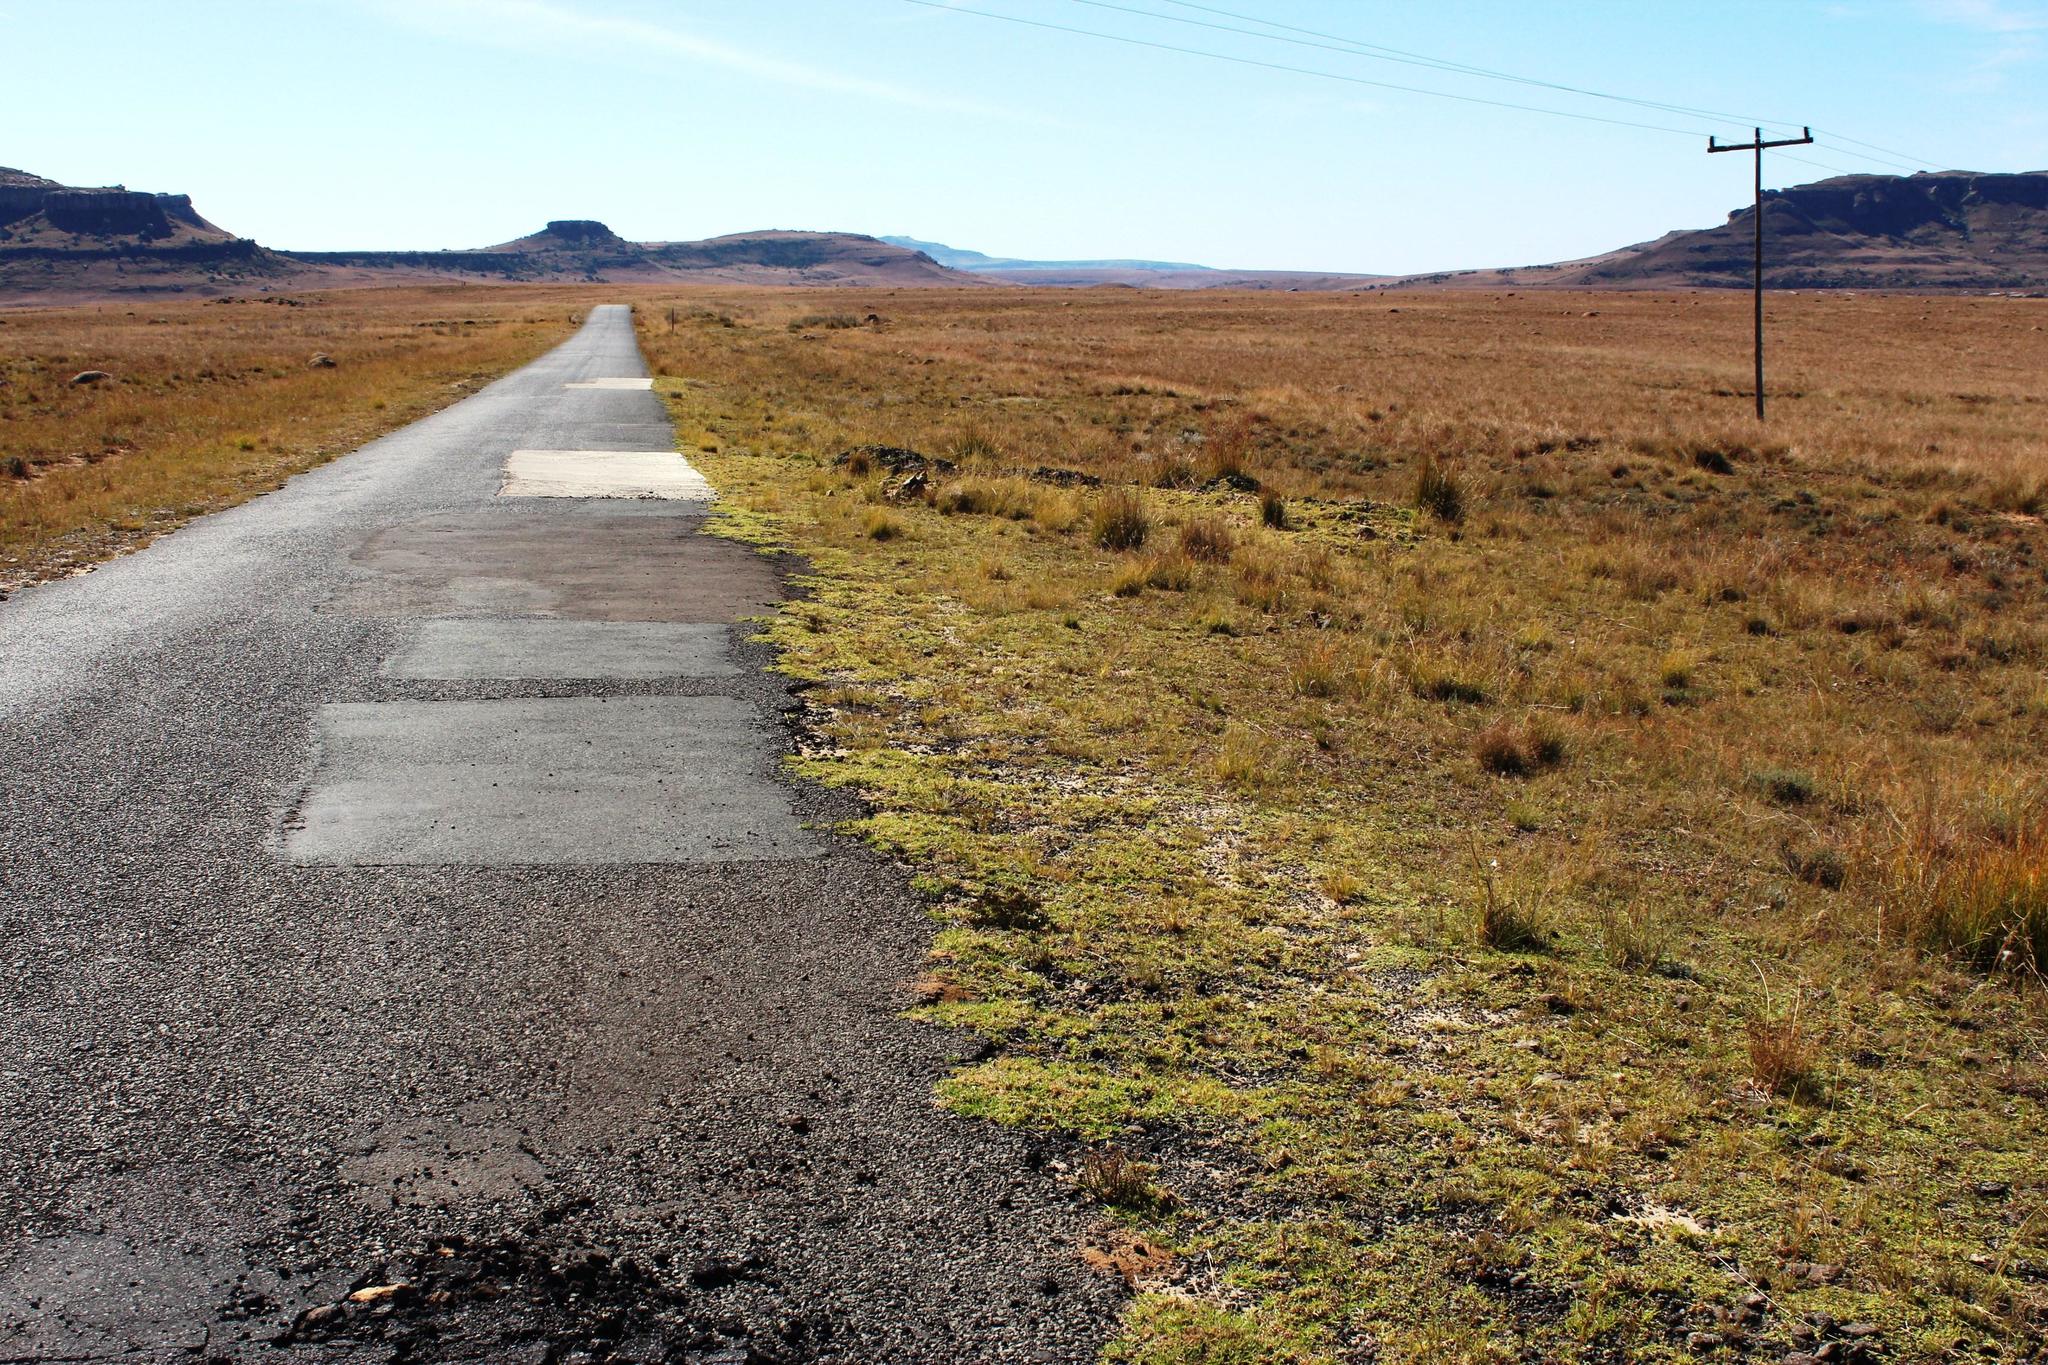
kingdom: Plantae
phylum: Tracheophyta
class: Liliopsida
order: Poales
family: Poaceae
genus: Cenchrus
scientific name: Cenchrus clandestinus
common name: Kikuyugrass
